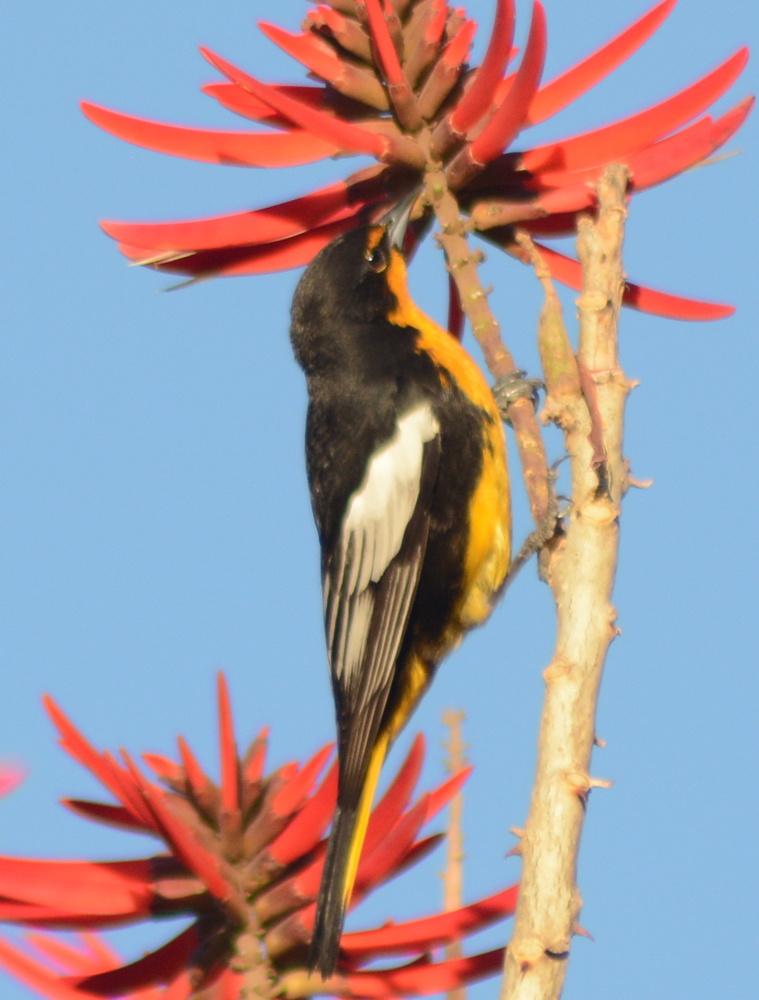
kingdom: Animalia
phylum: Chordata
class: Aves
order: Passeriformes
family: Icteridae
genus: Icterus
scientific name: Icterus abeillei
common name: Black-backed oriole
